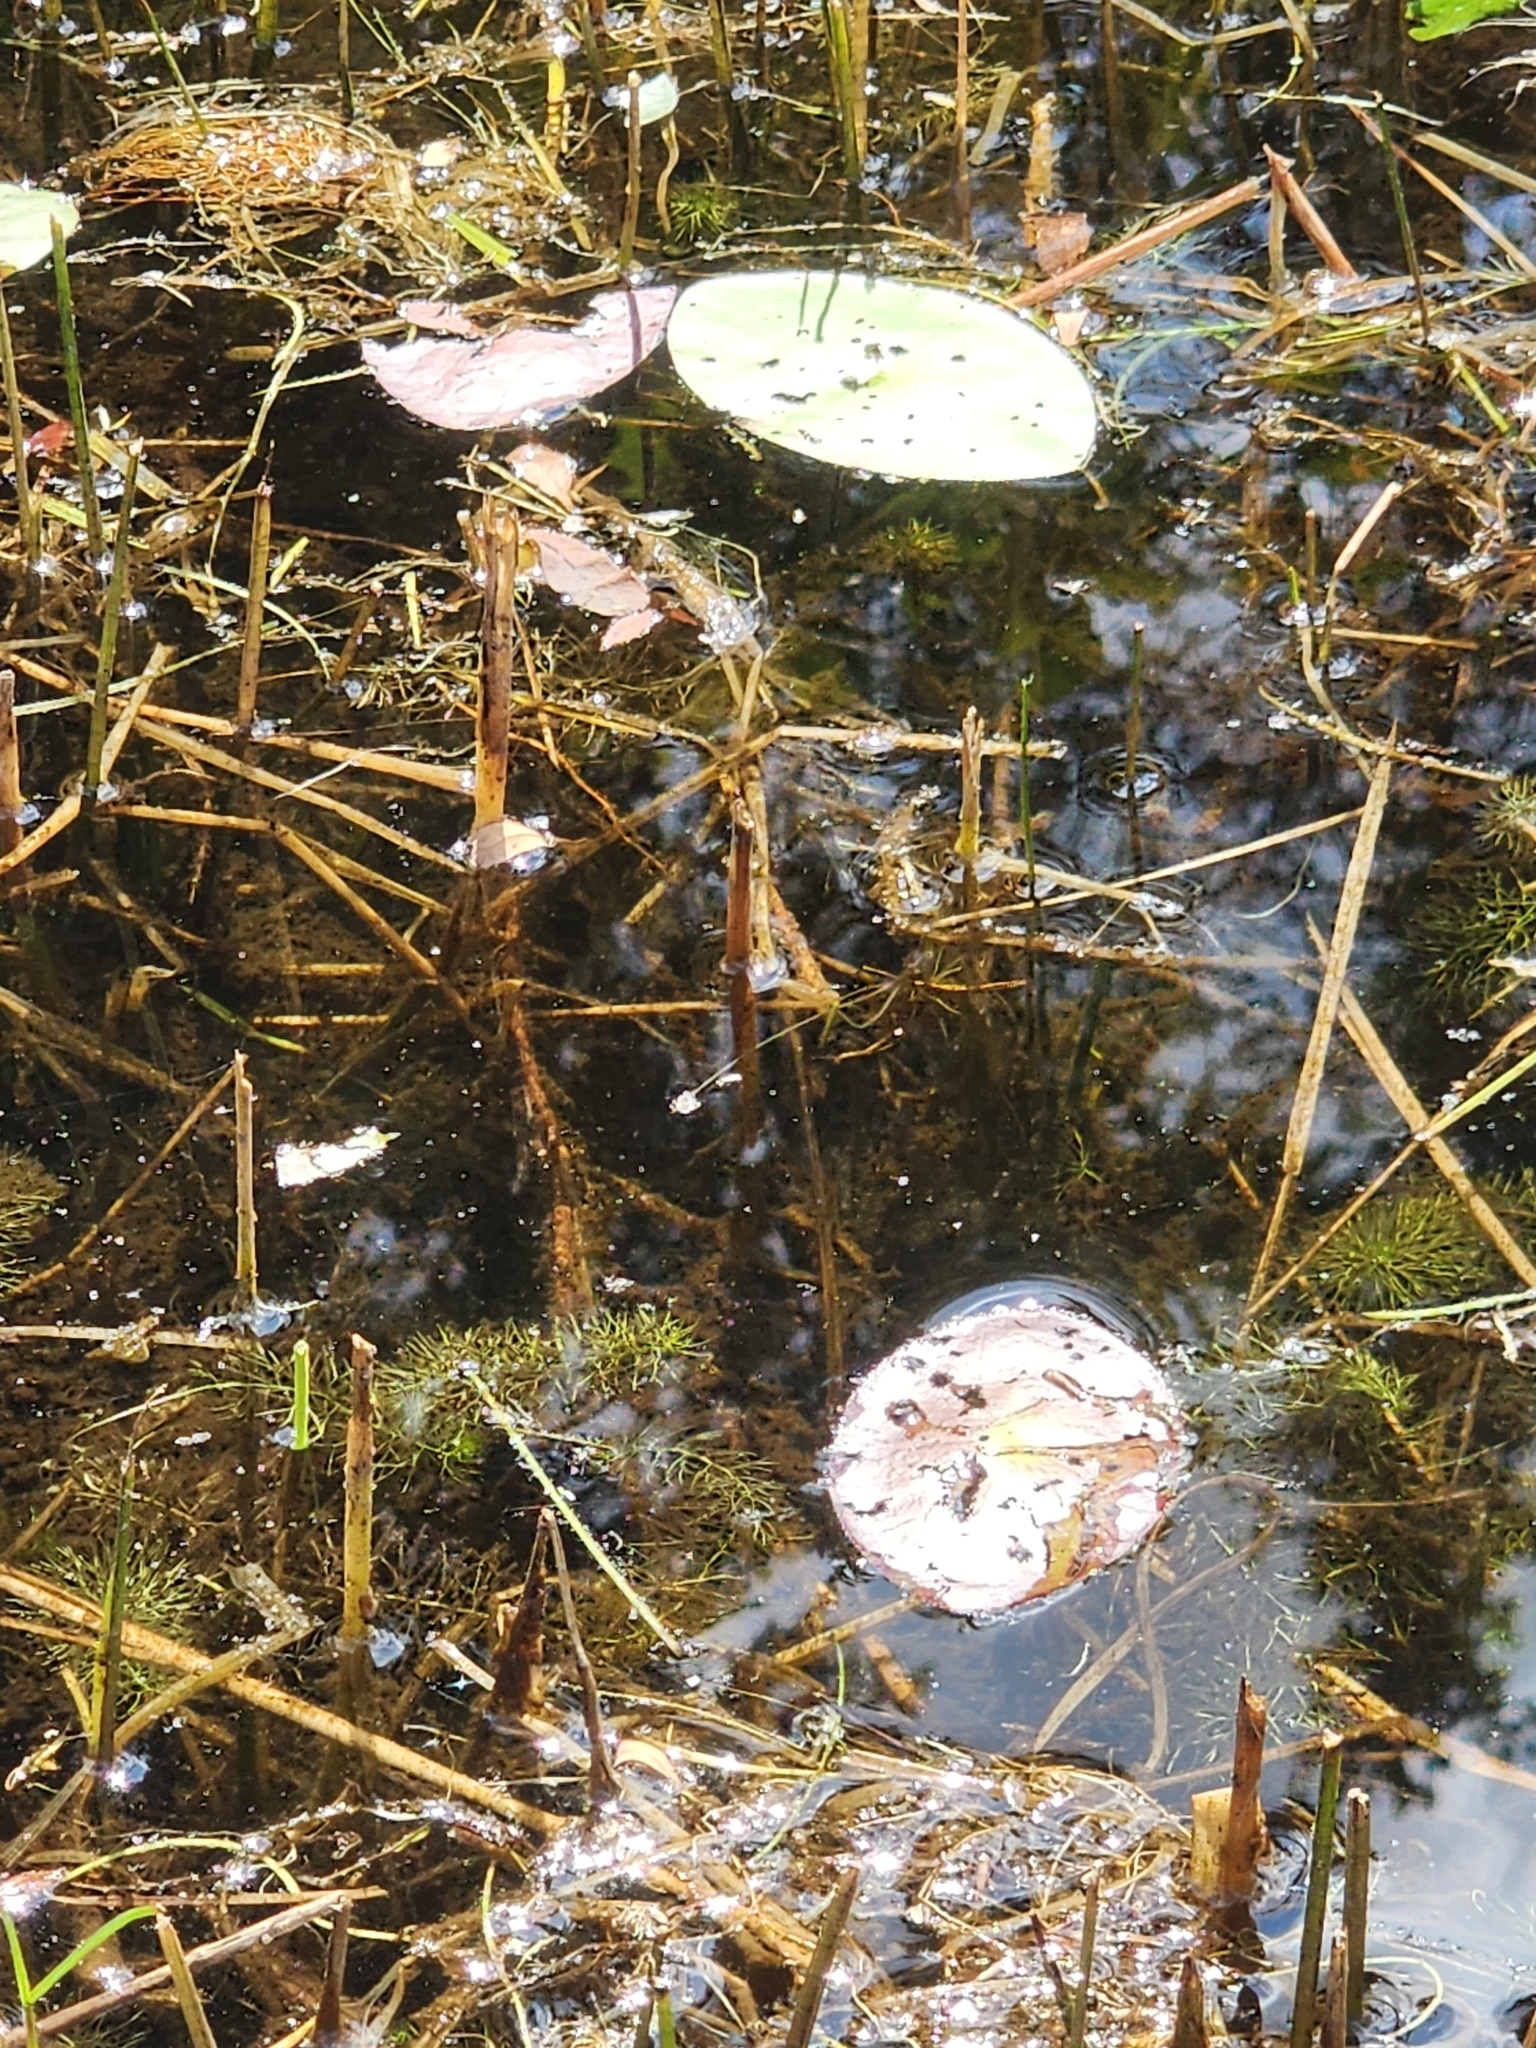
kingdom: Plantae
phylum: Tracheophyta
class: Magnoliopsida
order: Nymphaeales
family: Cabombaceae
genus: Brasenia
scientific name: Brasenia schreberi
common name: Water-shield
